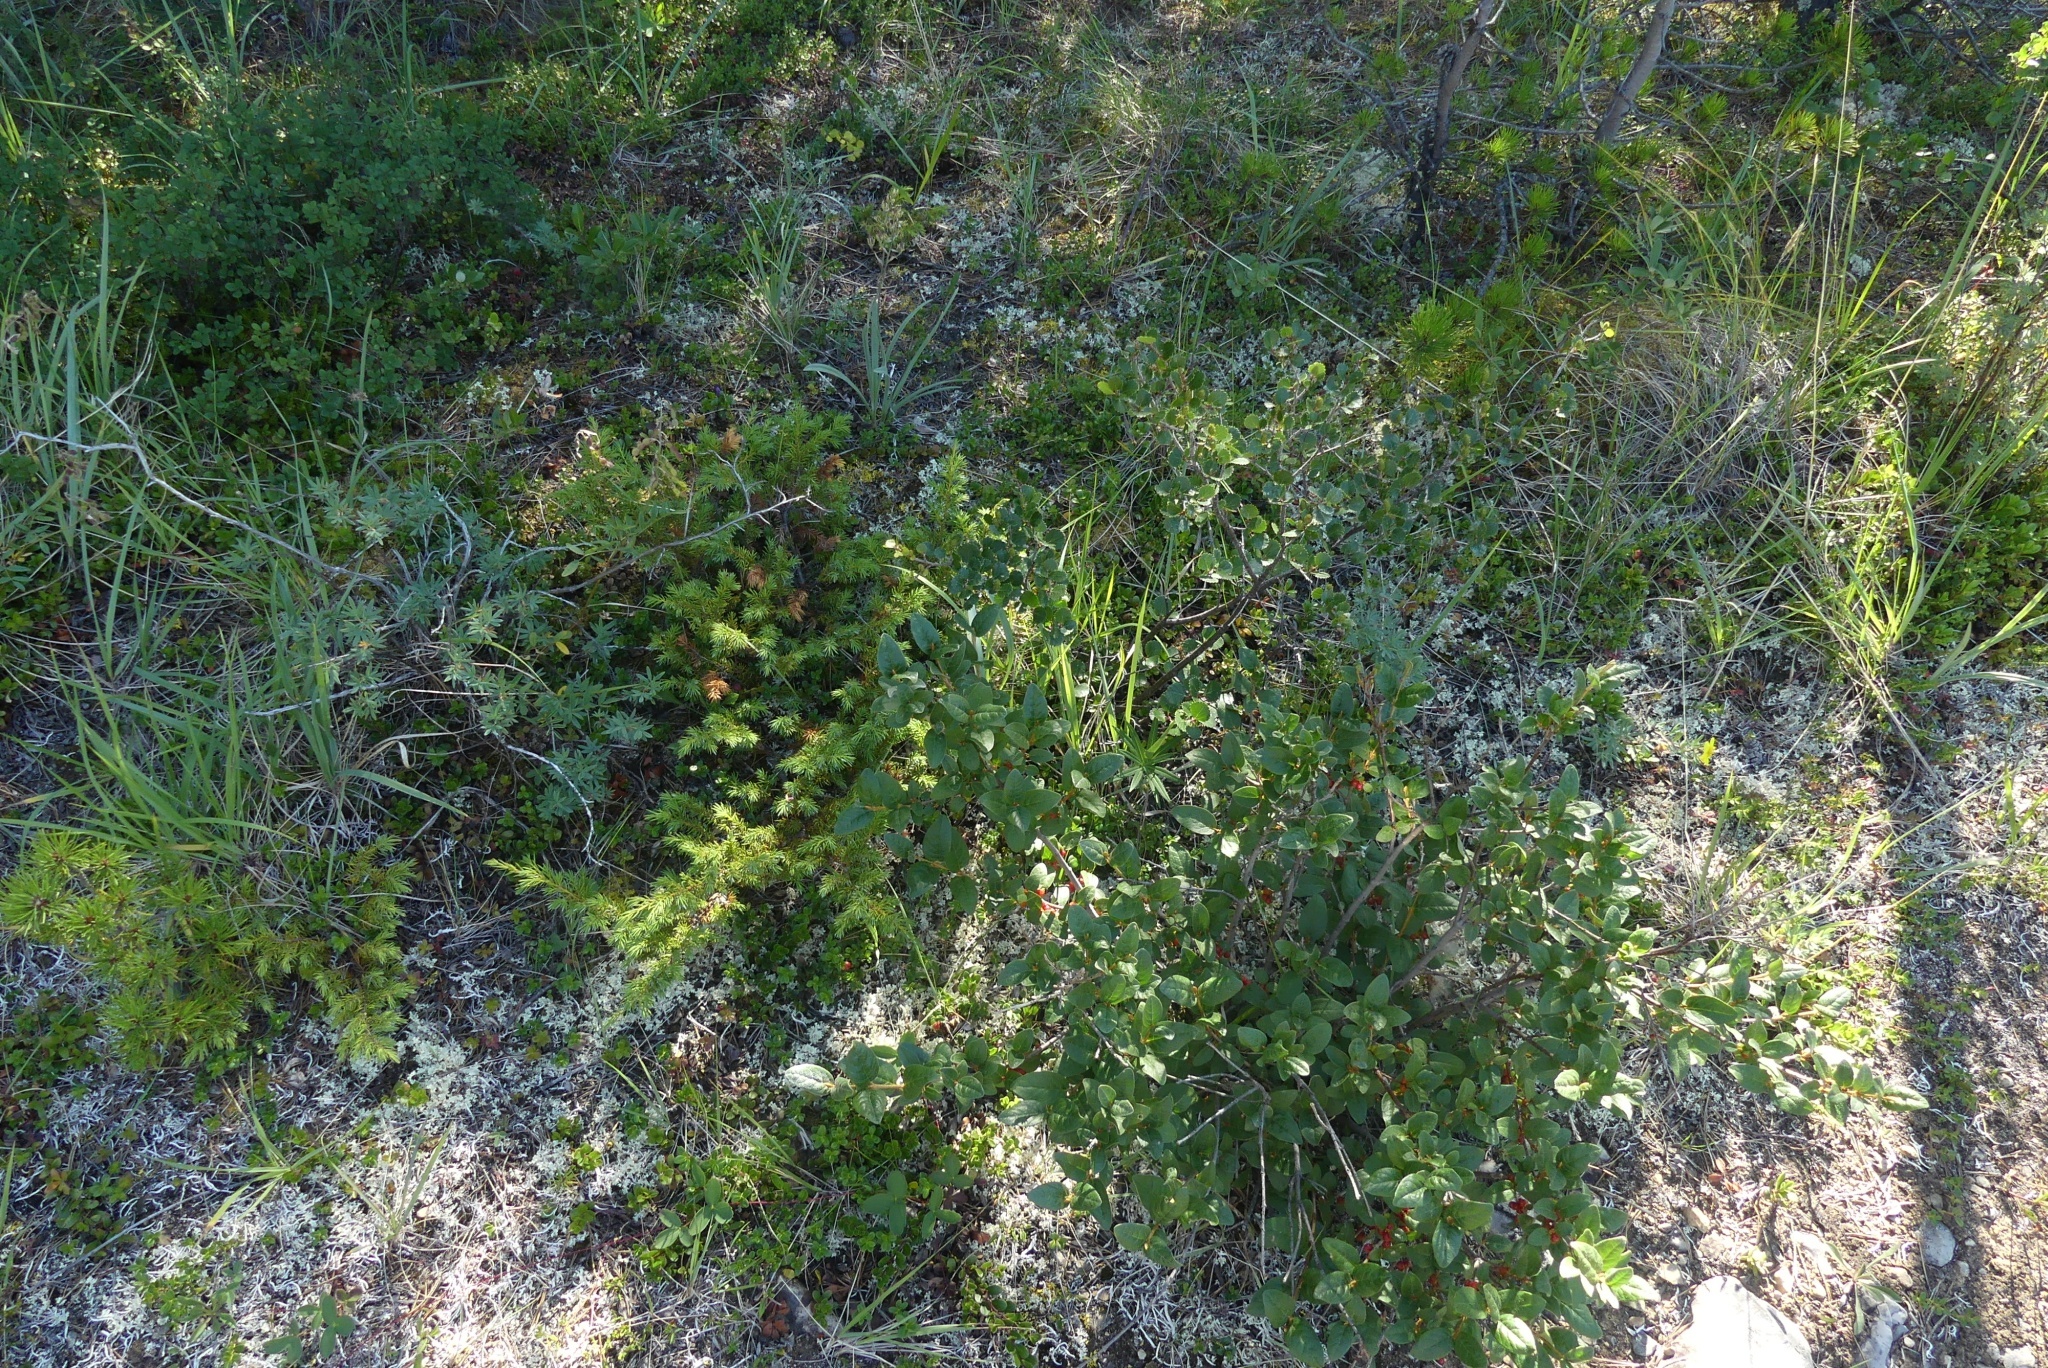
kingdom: Plantae
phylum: Tracheophyta
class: Magnoliopsida
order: Rosales
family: Elaeagnaceae
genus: Shepherdia
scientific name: Shepherdia canadensis
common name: Soapberry
